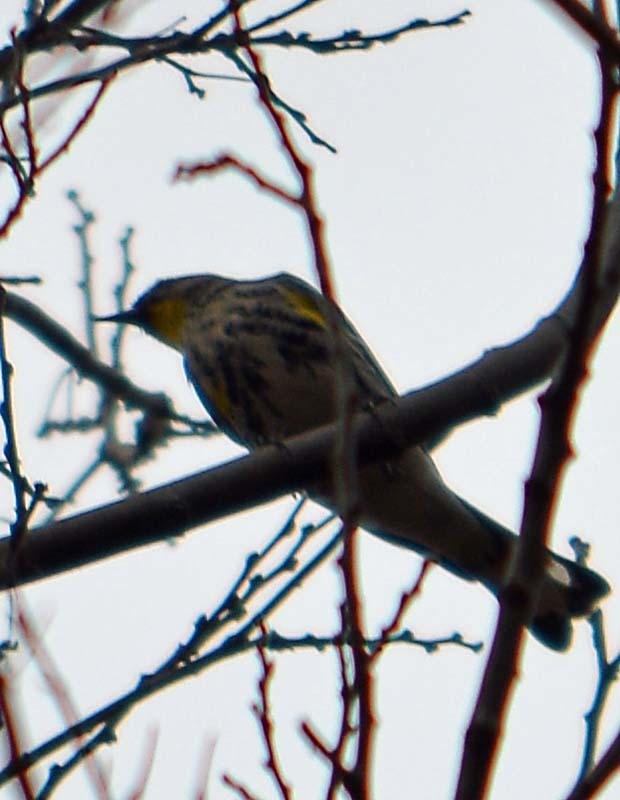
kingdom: Animalia
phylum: Chordata
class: Aves
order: Passeriformes
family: Parulidae
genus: Setophaga
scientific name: Setophaga coronata
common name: Myrtle warbler
